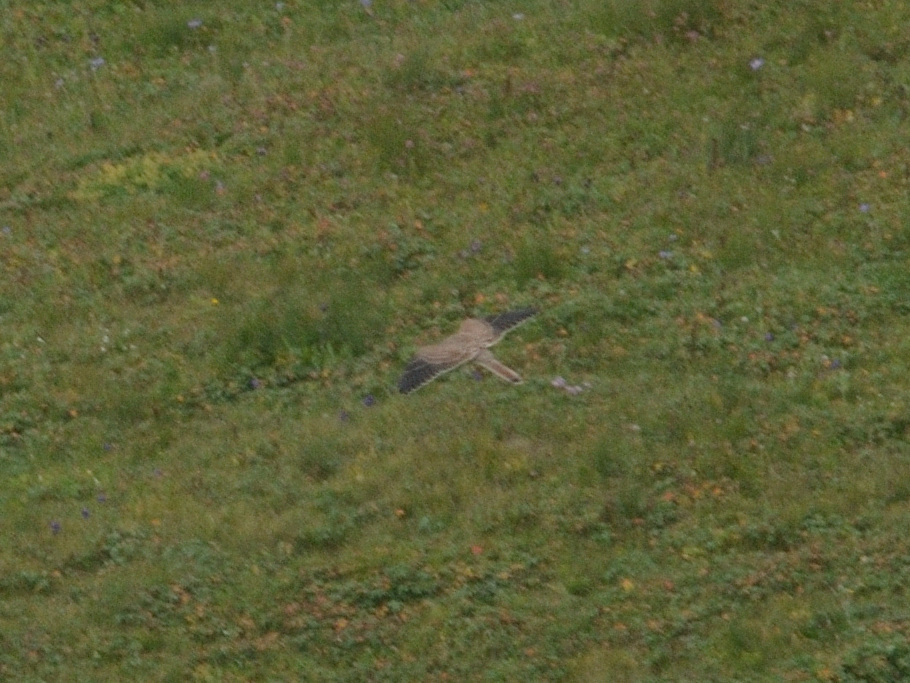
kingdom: Animalia
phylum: Chordata
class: Aves
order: Falconiformes
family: Falconidae
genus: Falco
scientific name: Falco tinnunculus
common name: Common kestrel
